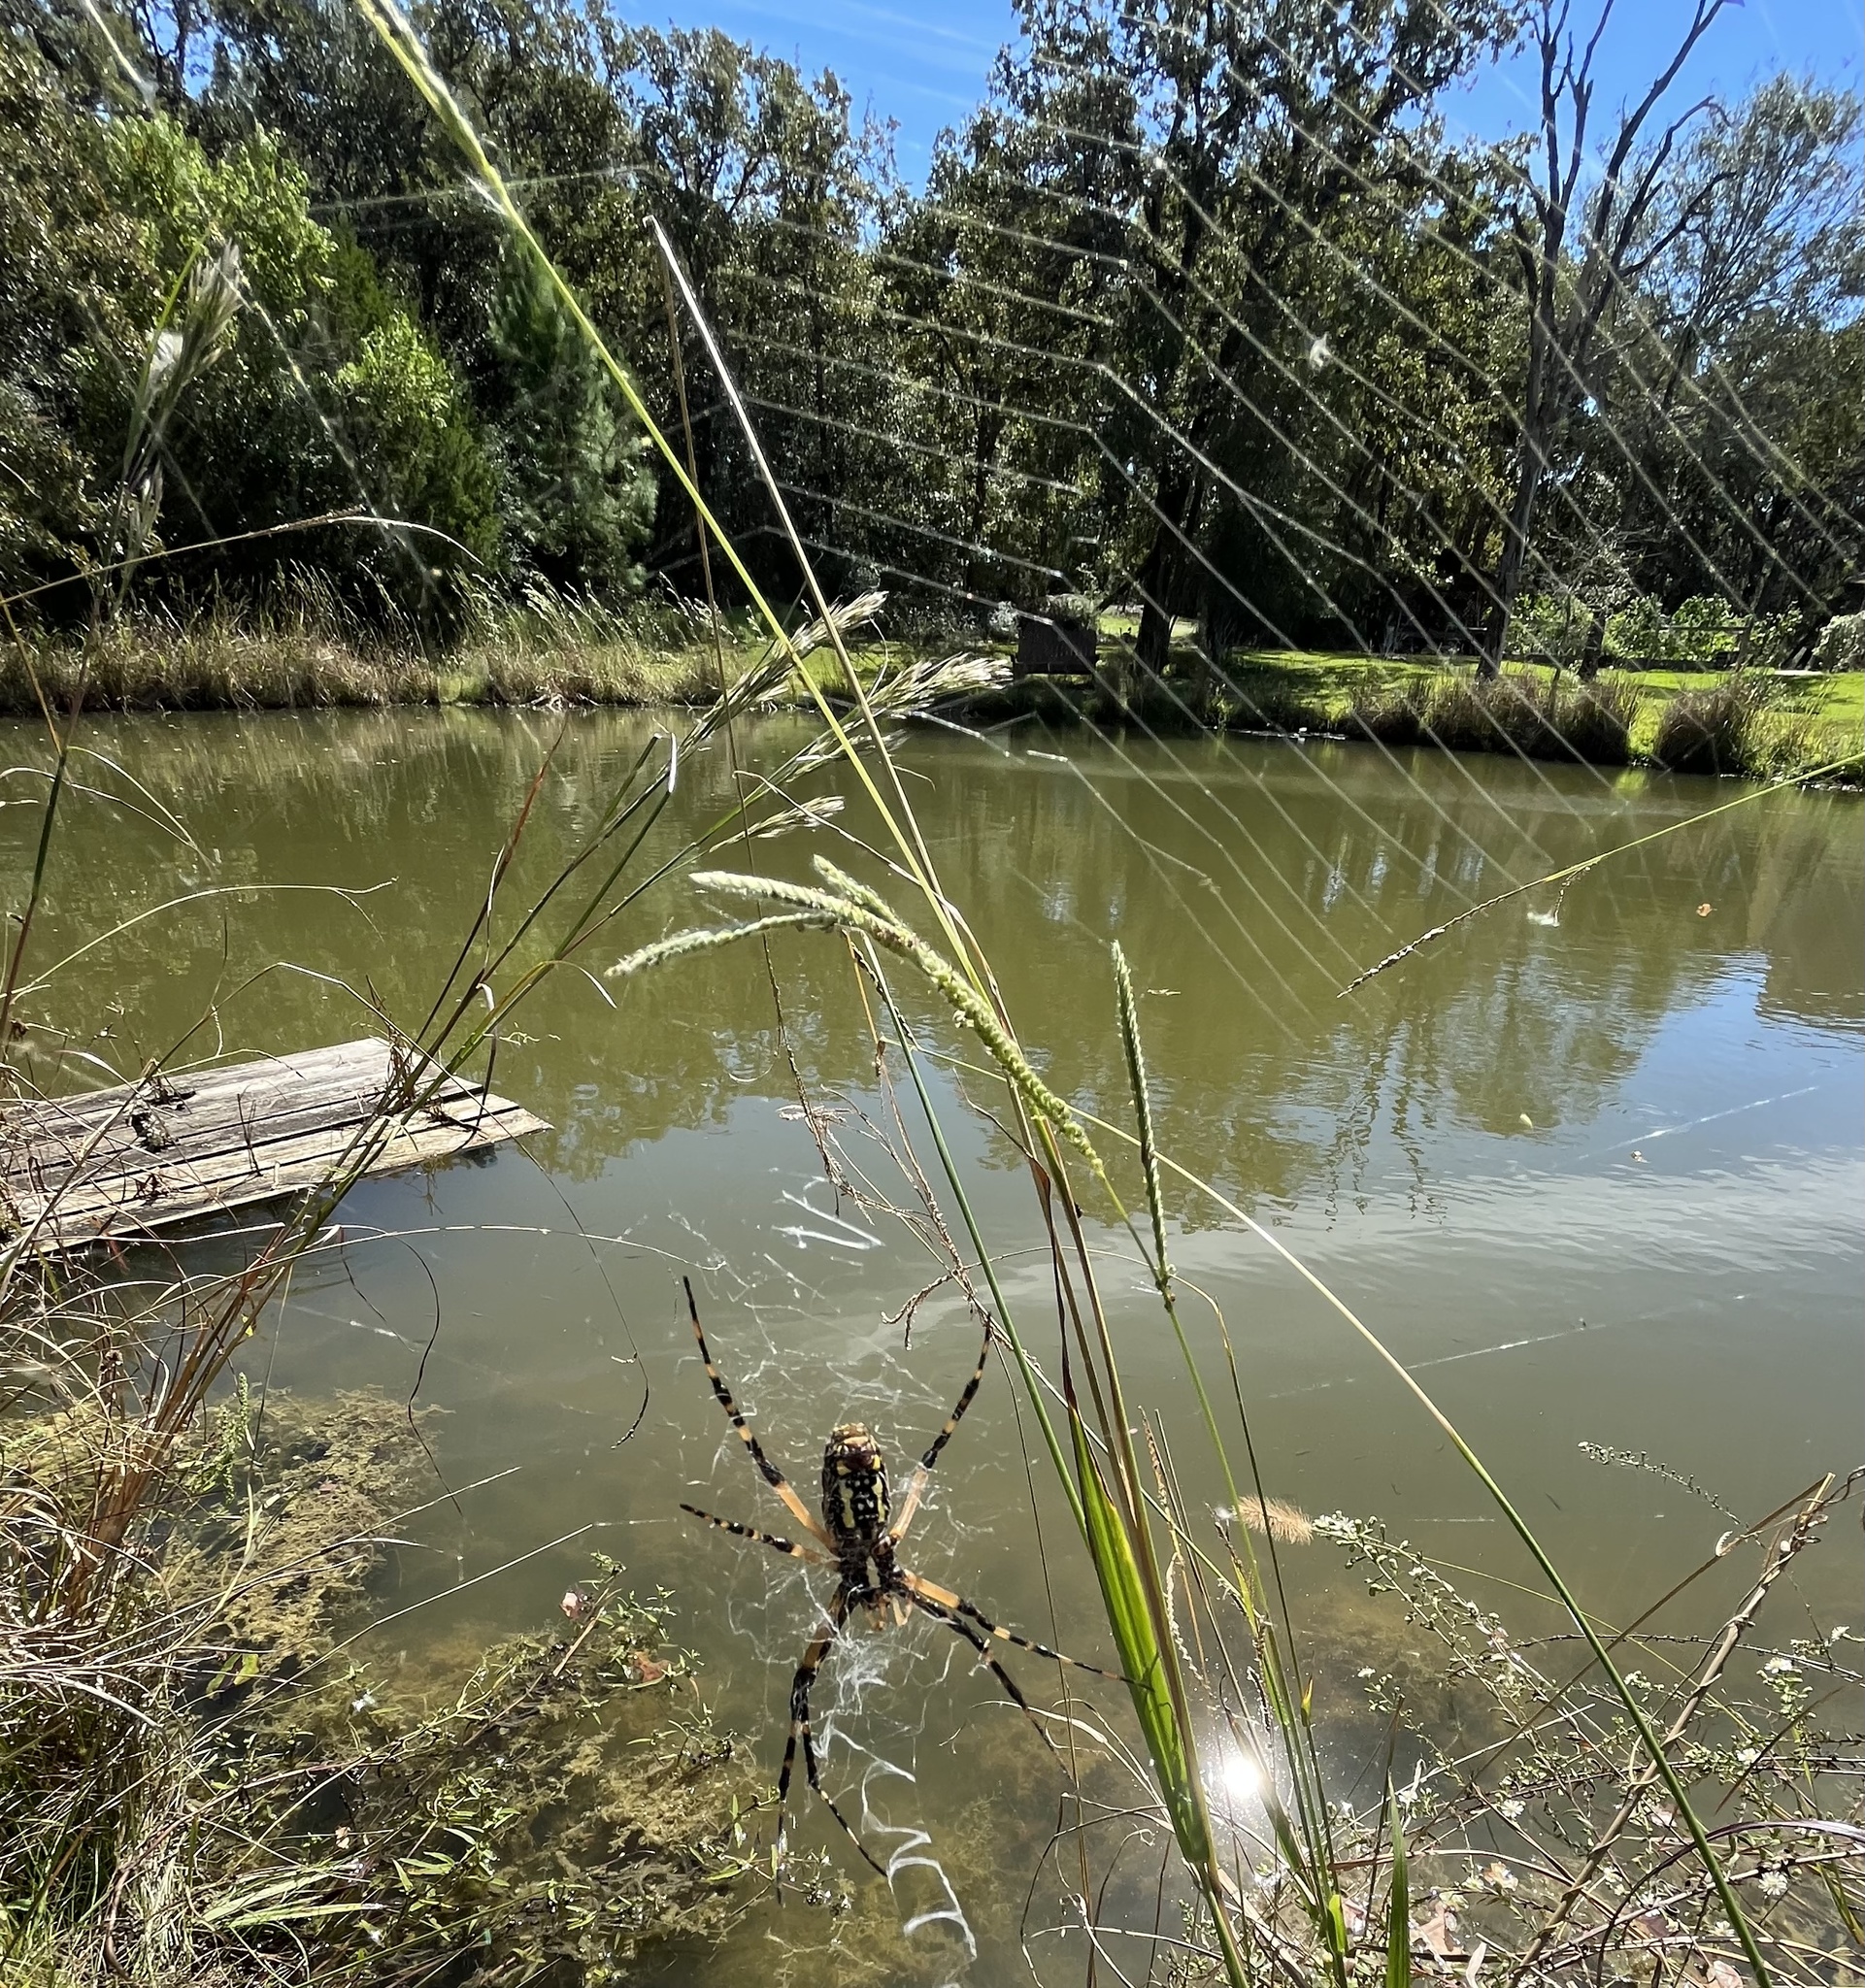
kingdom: Animalia
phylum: Arthropoda
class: Arachnida
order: Araneae
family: Araneidae
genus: Argiope
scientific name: Argiope aurantia
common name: Orb weavers
